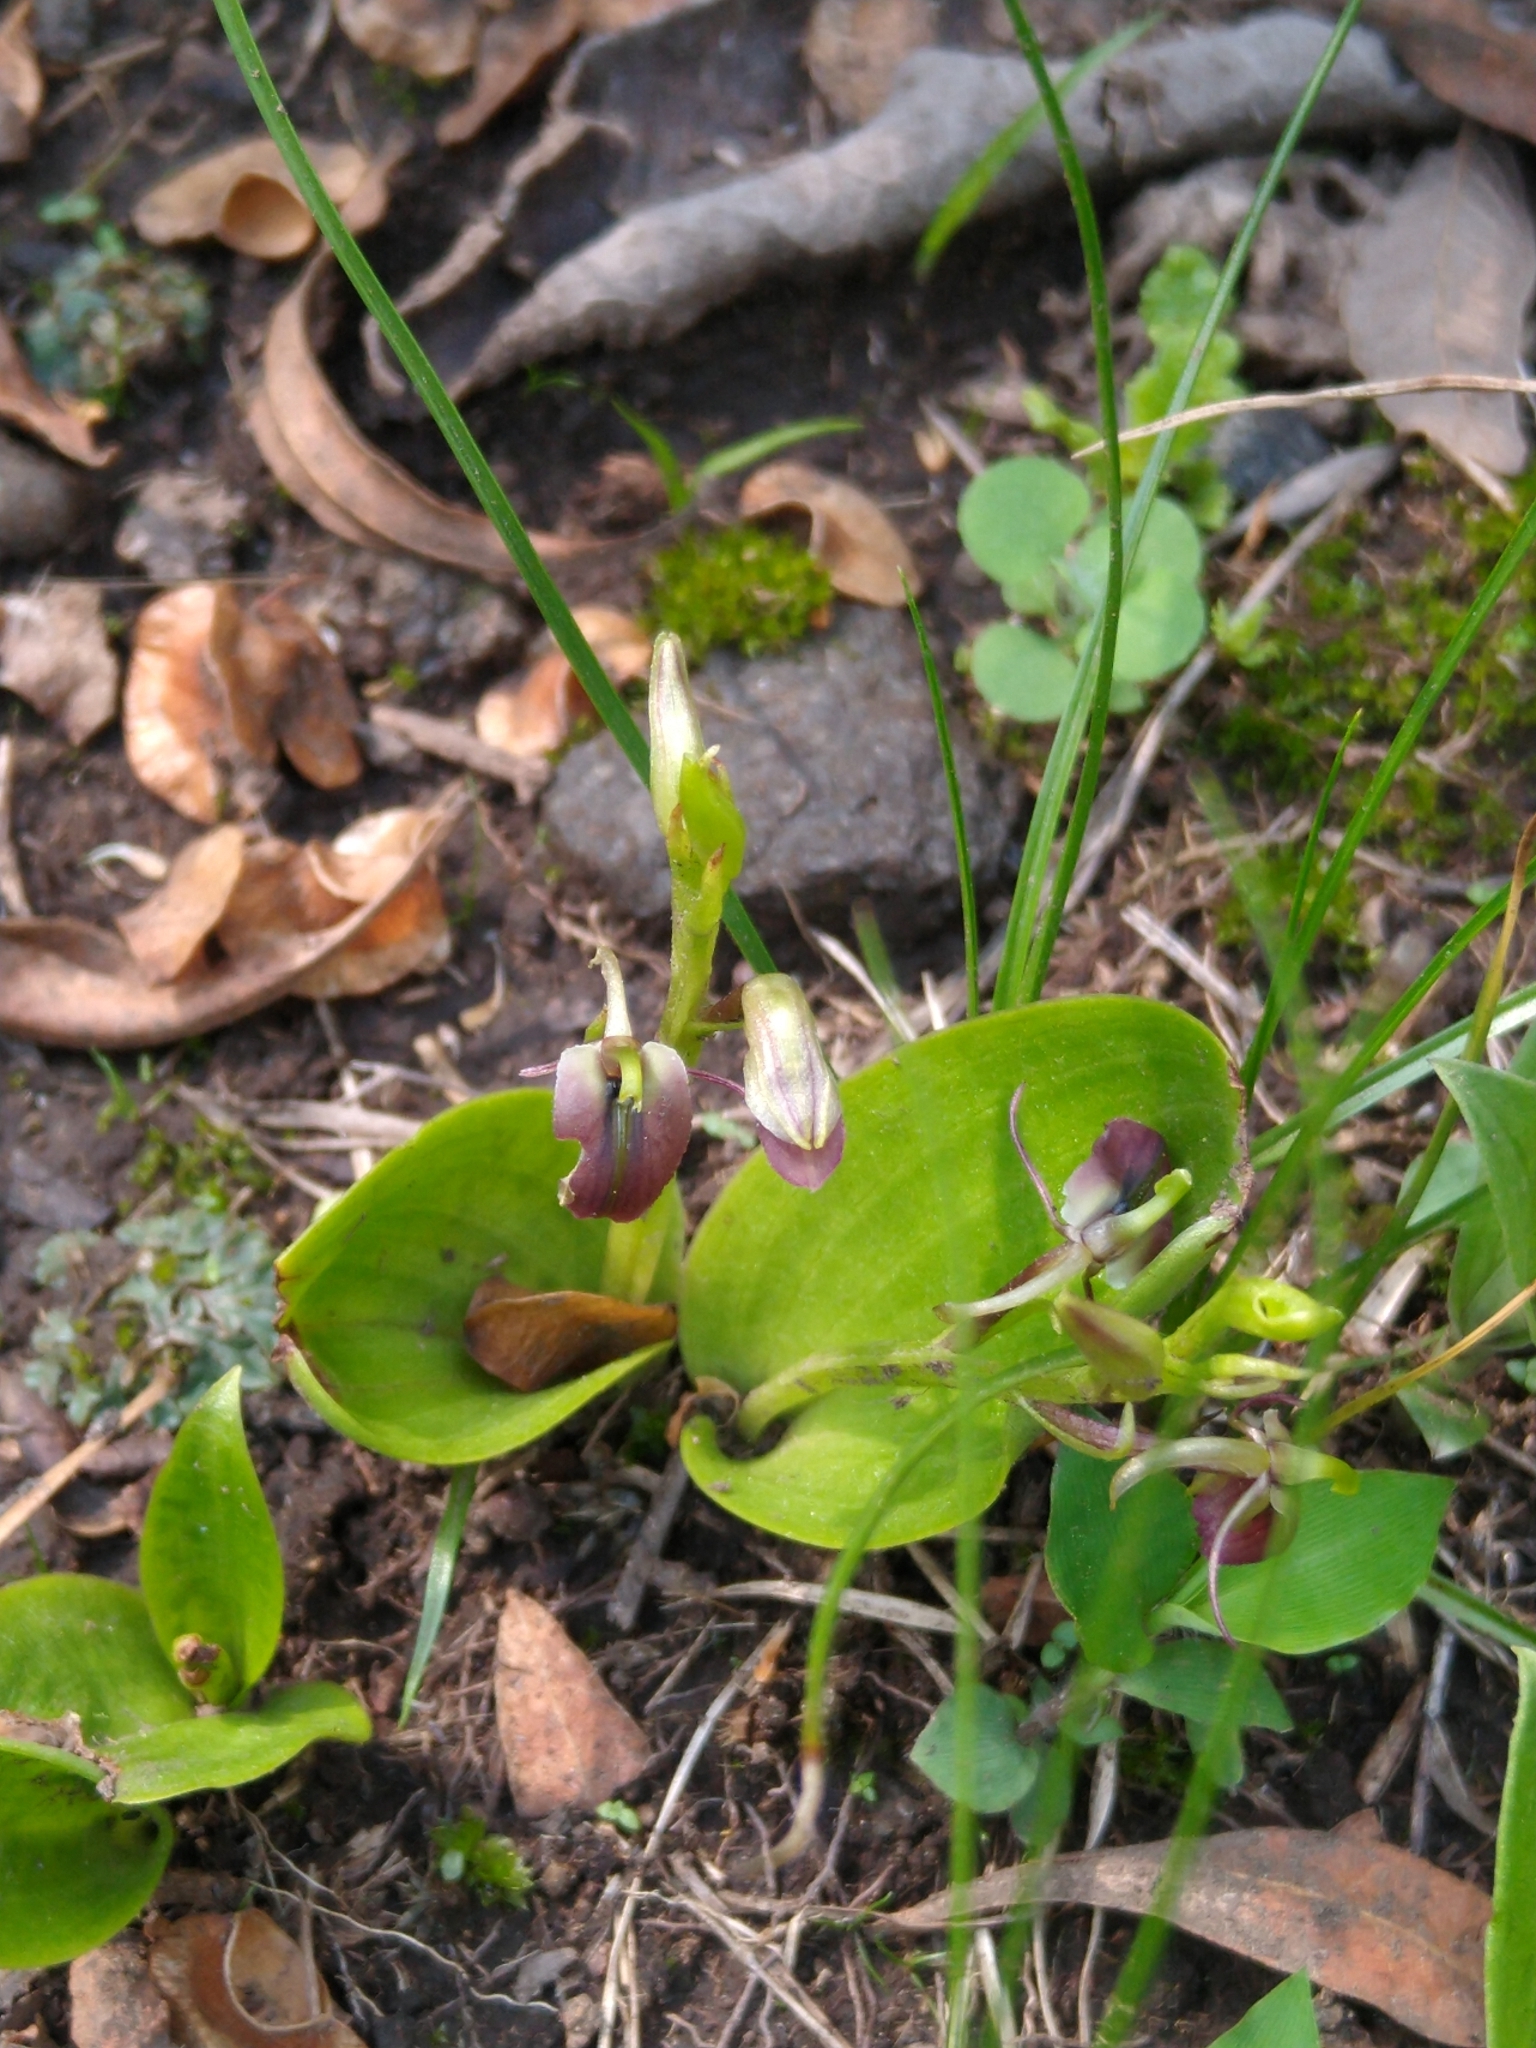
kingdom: Plantae
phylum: Tracheophyta
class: Liliopsida
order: Asparagales
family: Orchidaceae
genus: Liparis
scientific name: Liparis greenwoodiana
